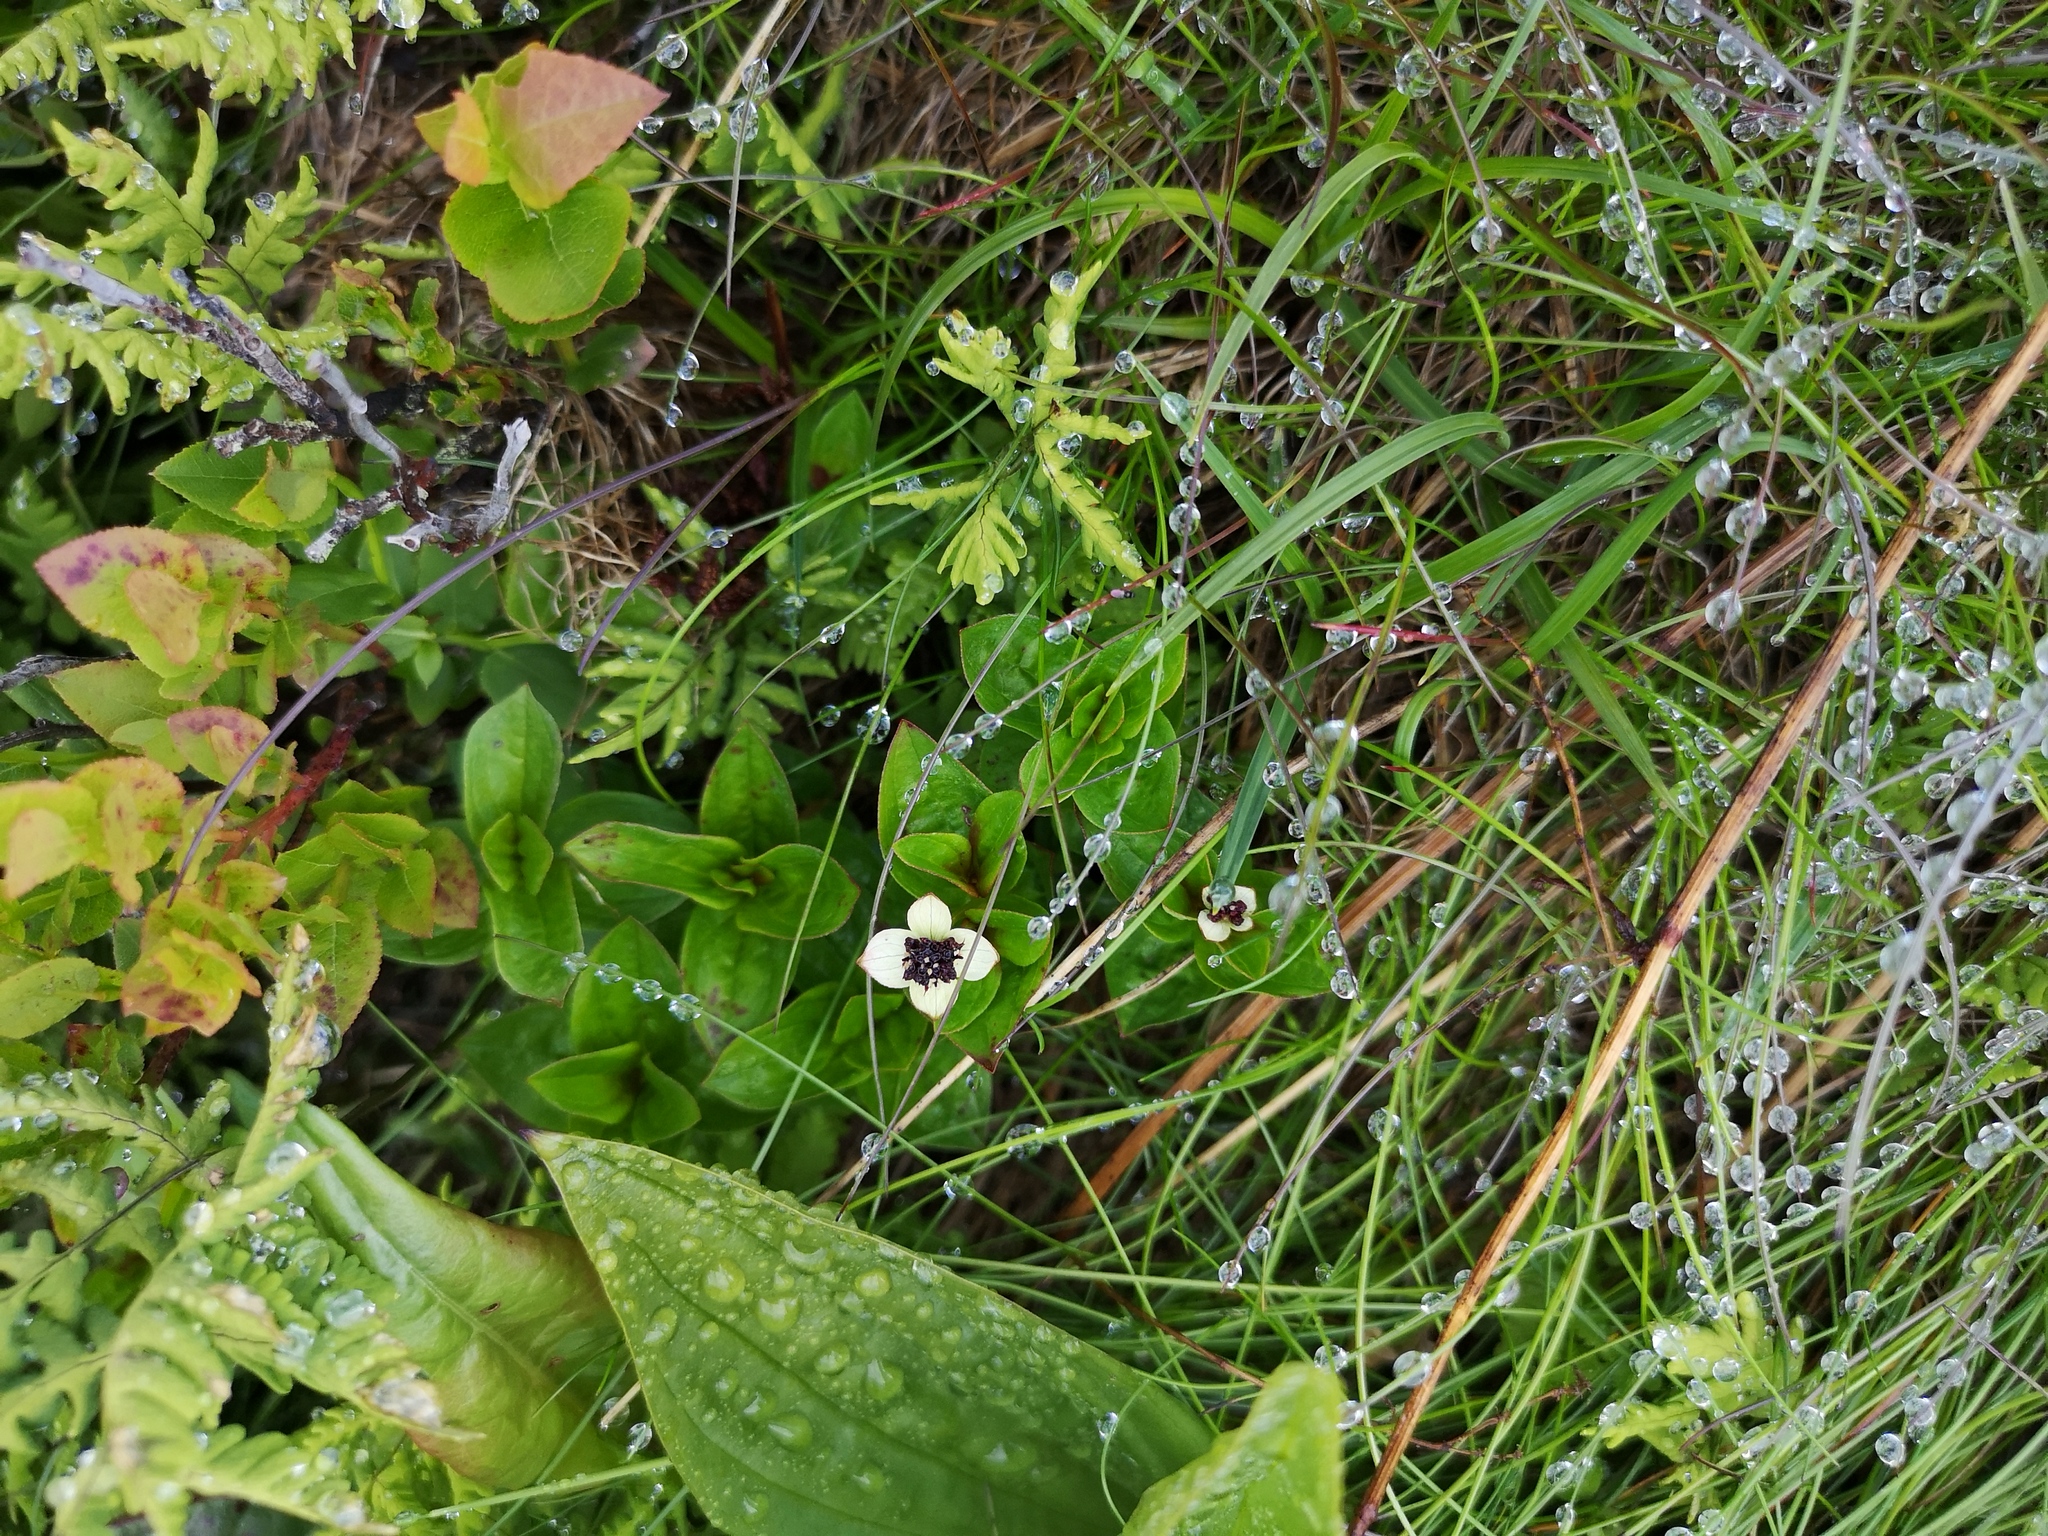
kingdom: Plantae
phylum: Tracheophyta
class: Magnoliopsida
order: Cornales
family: Cornaceae
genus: Cornus
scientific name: Cornus suecica
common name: Dwarf cornel
